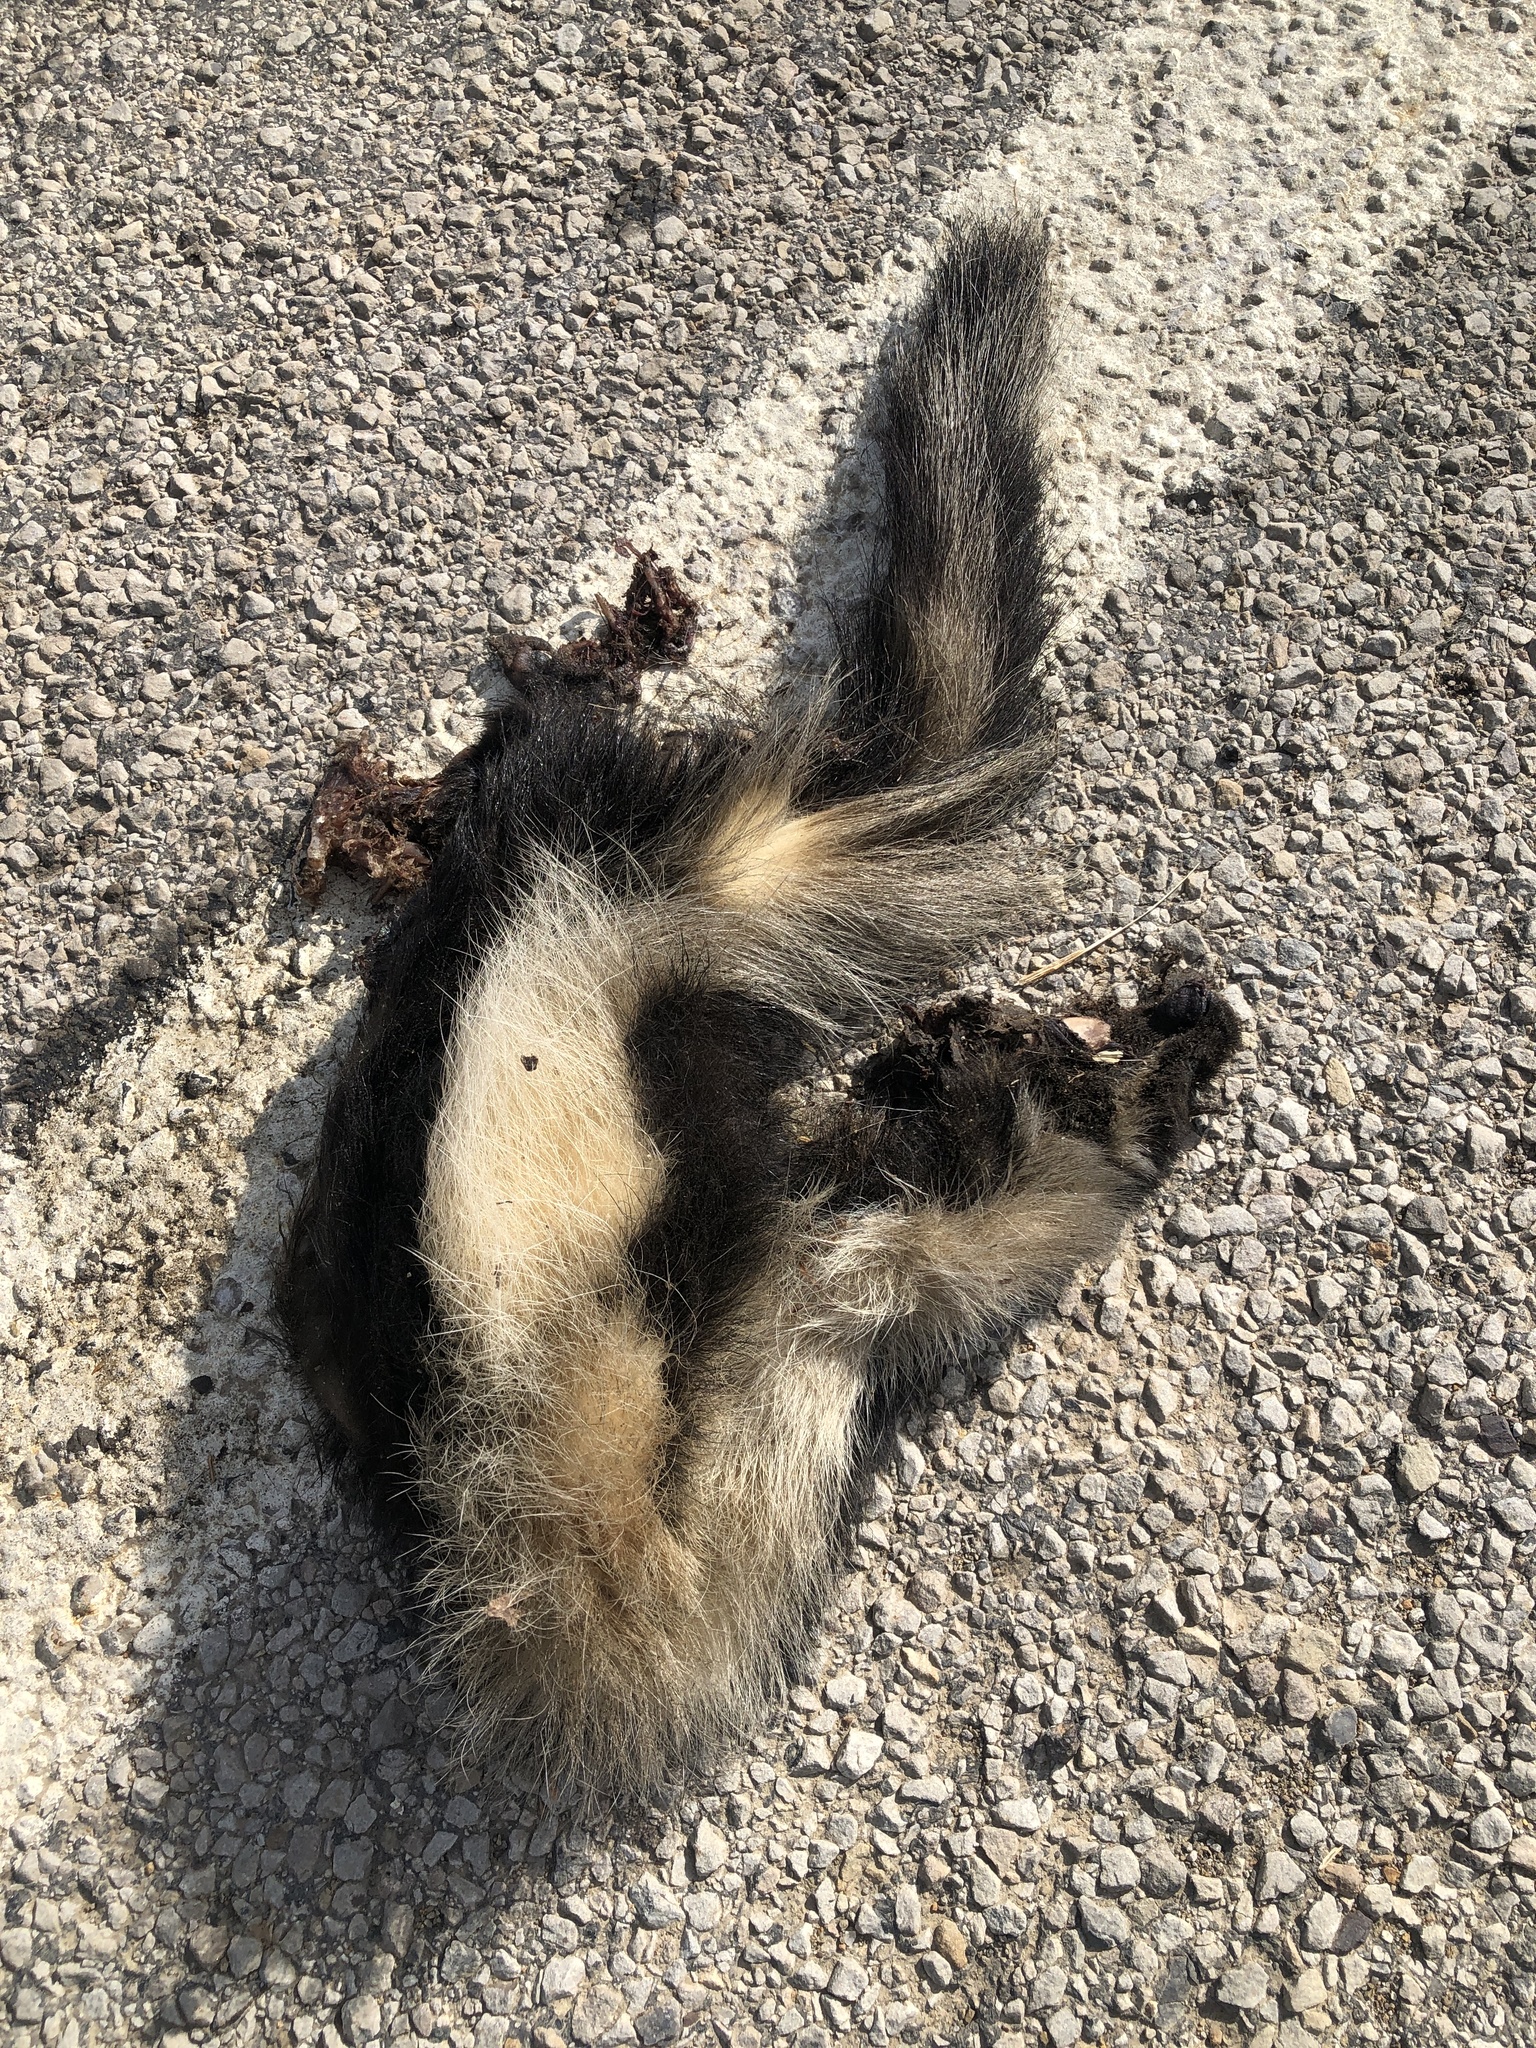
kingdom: Animalia
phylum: Chordata
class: Mammalia
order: Carnivora
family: Mephitidae
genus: Mephitis
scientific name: Mephitis mephitis
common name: Striped skunk
